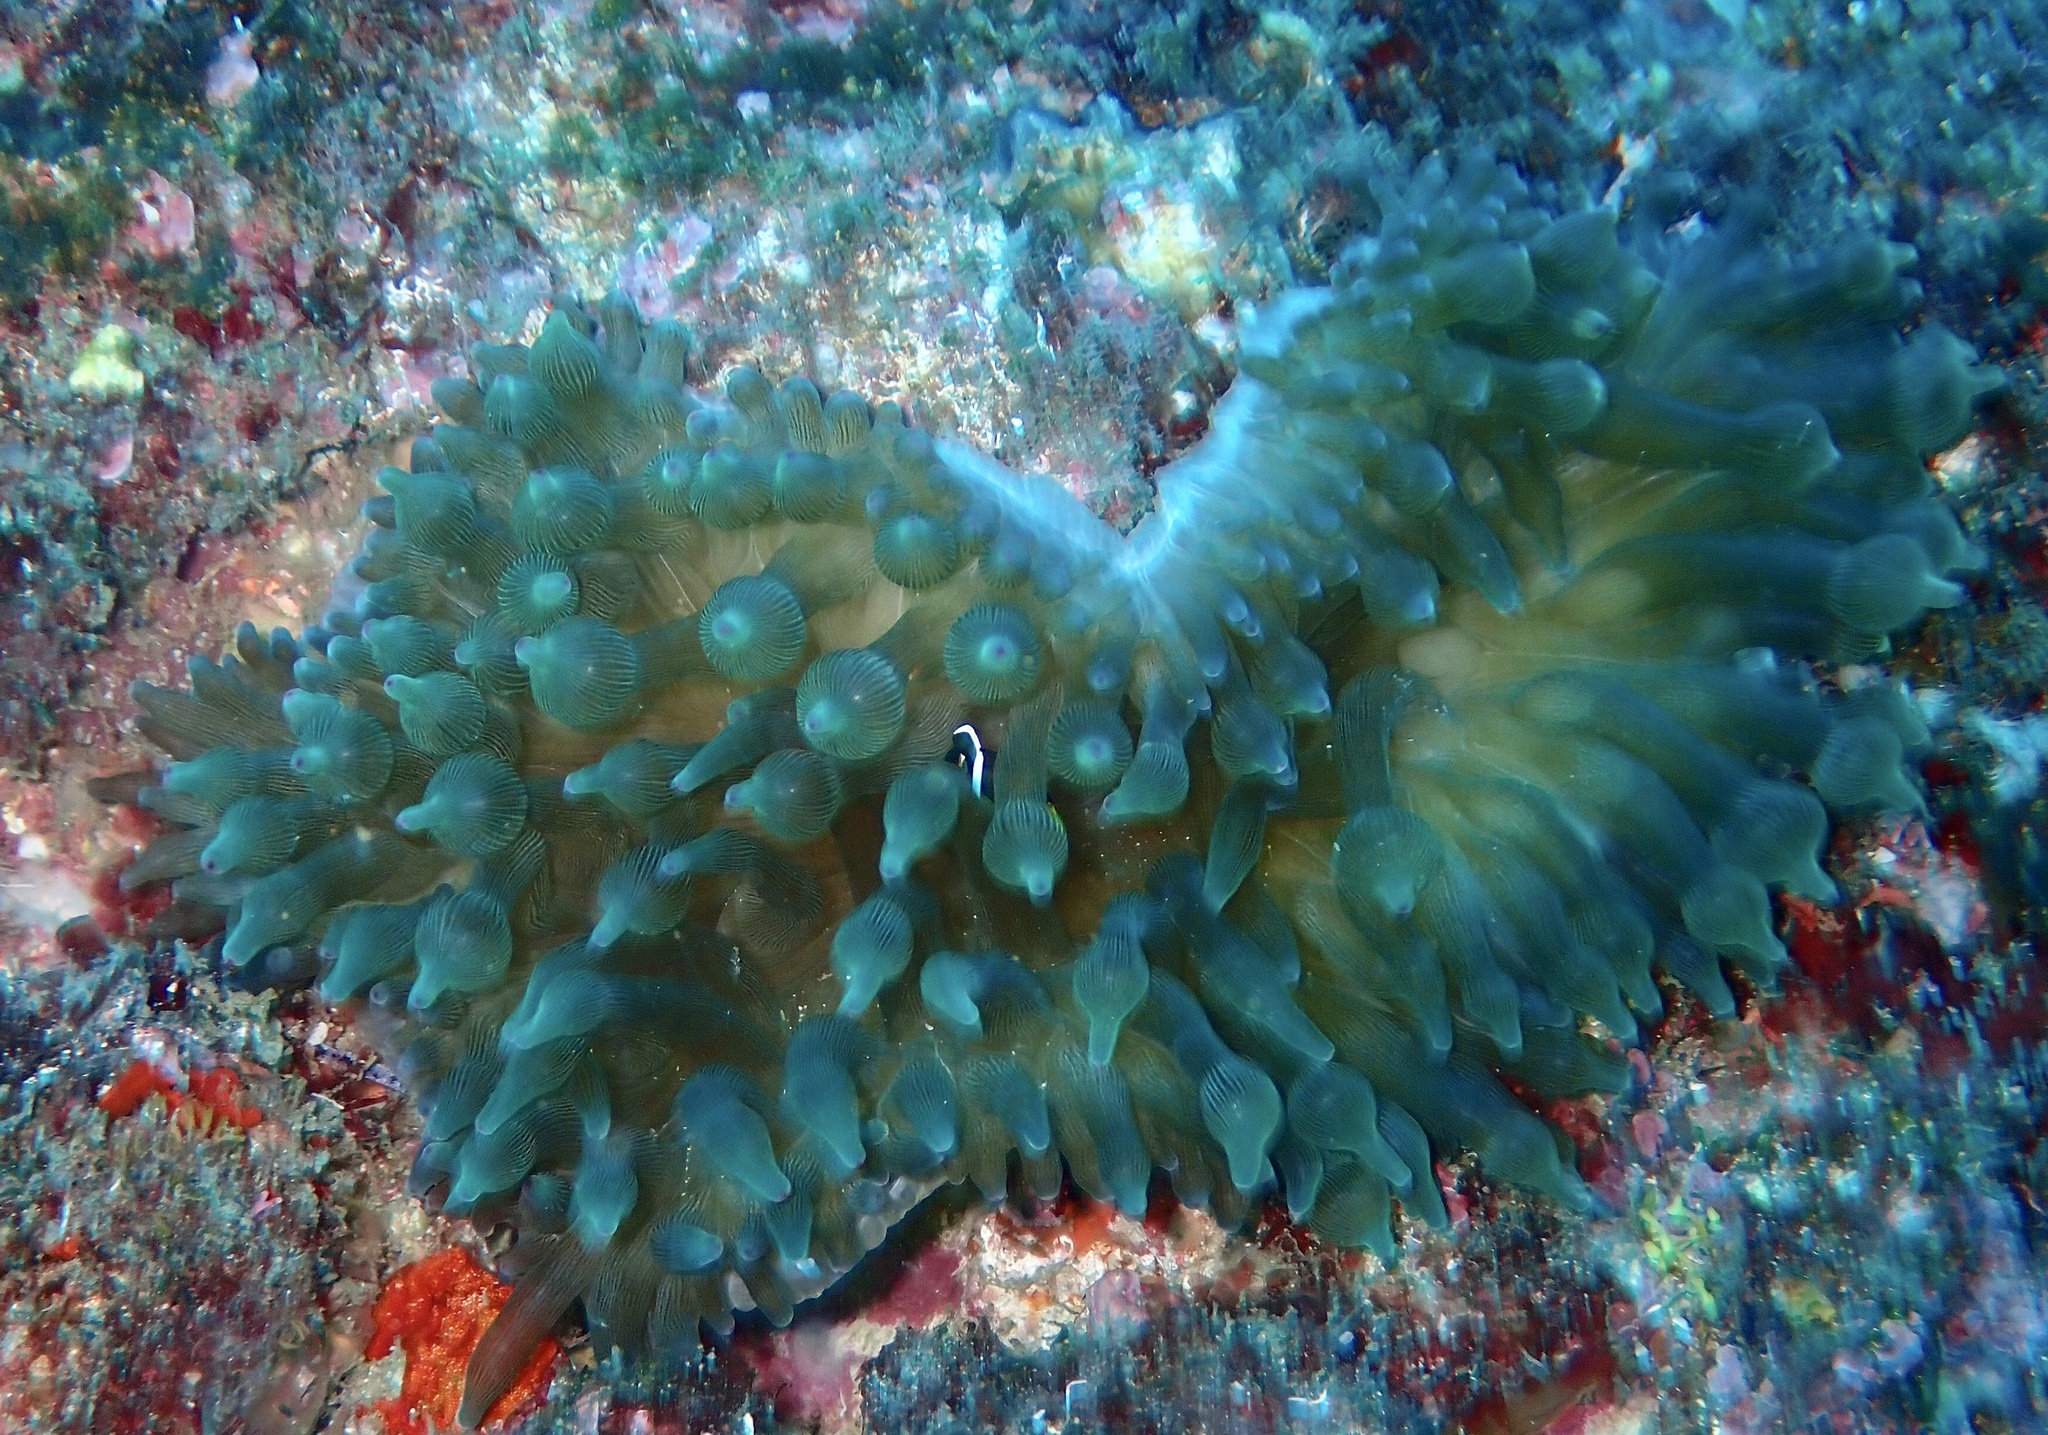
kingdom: Animalia
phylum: Cnidaria
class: Anthozoa
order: Actiniaria
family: Actiniidae
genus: Entacmaea
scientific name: Entacmaea quadricolor
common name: Bulb tentacle sea anemone
